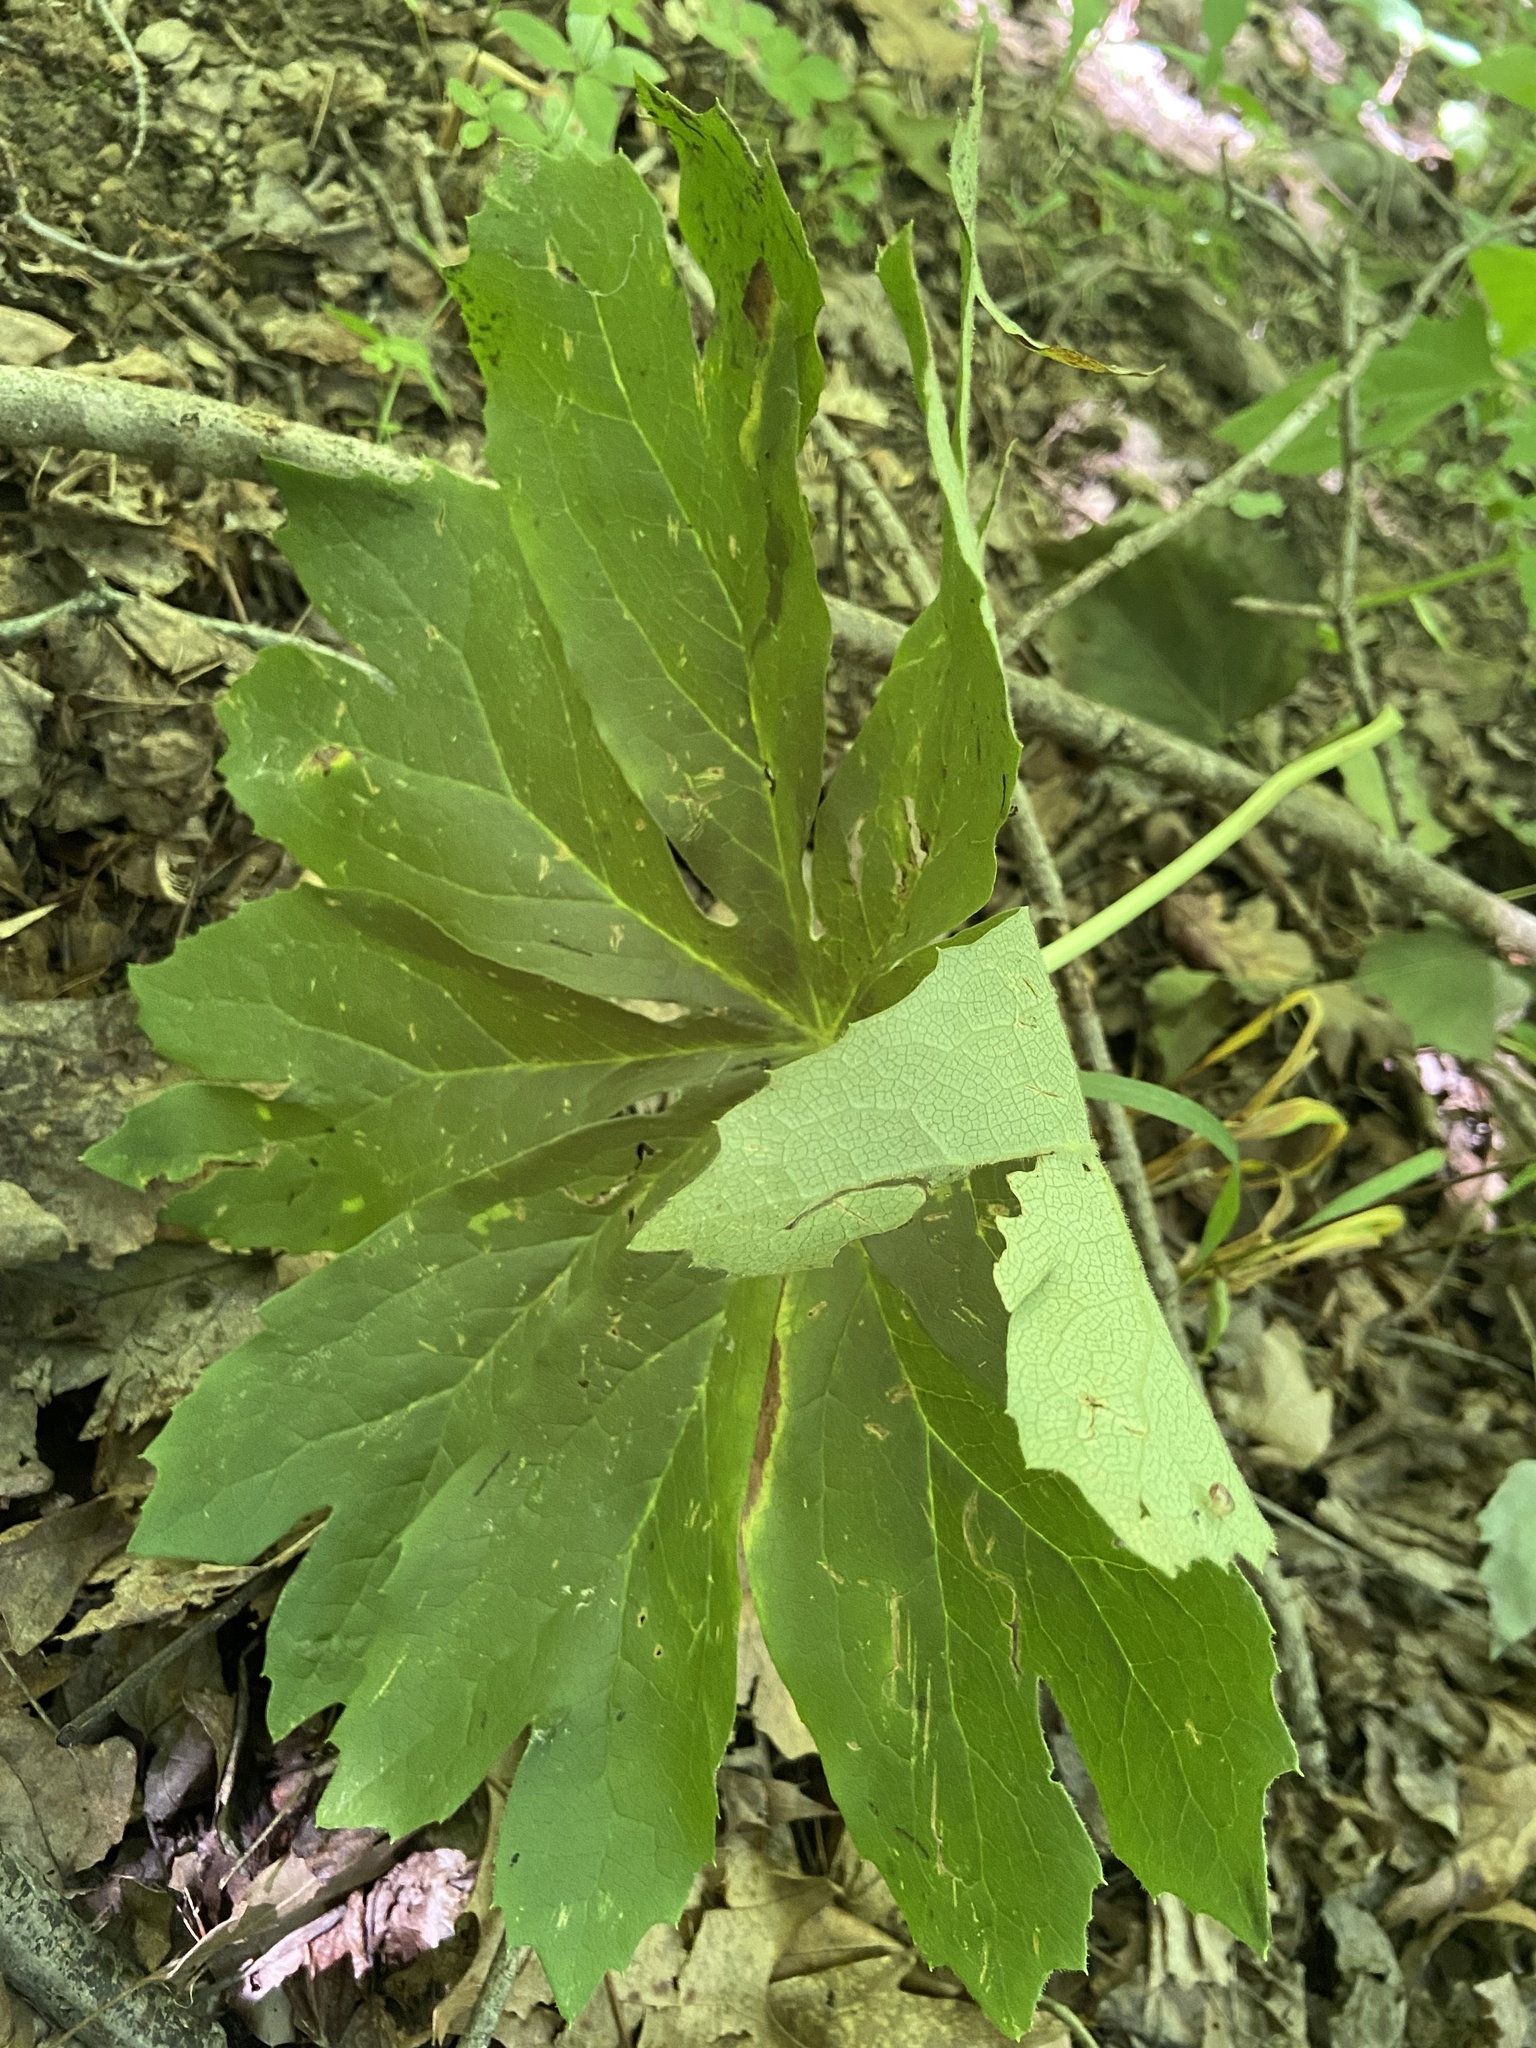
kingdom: Plantae
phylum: Tracheophyta
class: Magnoliopsida
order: Ranunculales
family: Berberidaceae
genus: Podophyllum
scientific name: Podophyllum peltatum
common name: Wild mandrake
